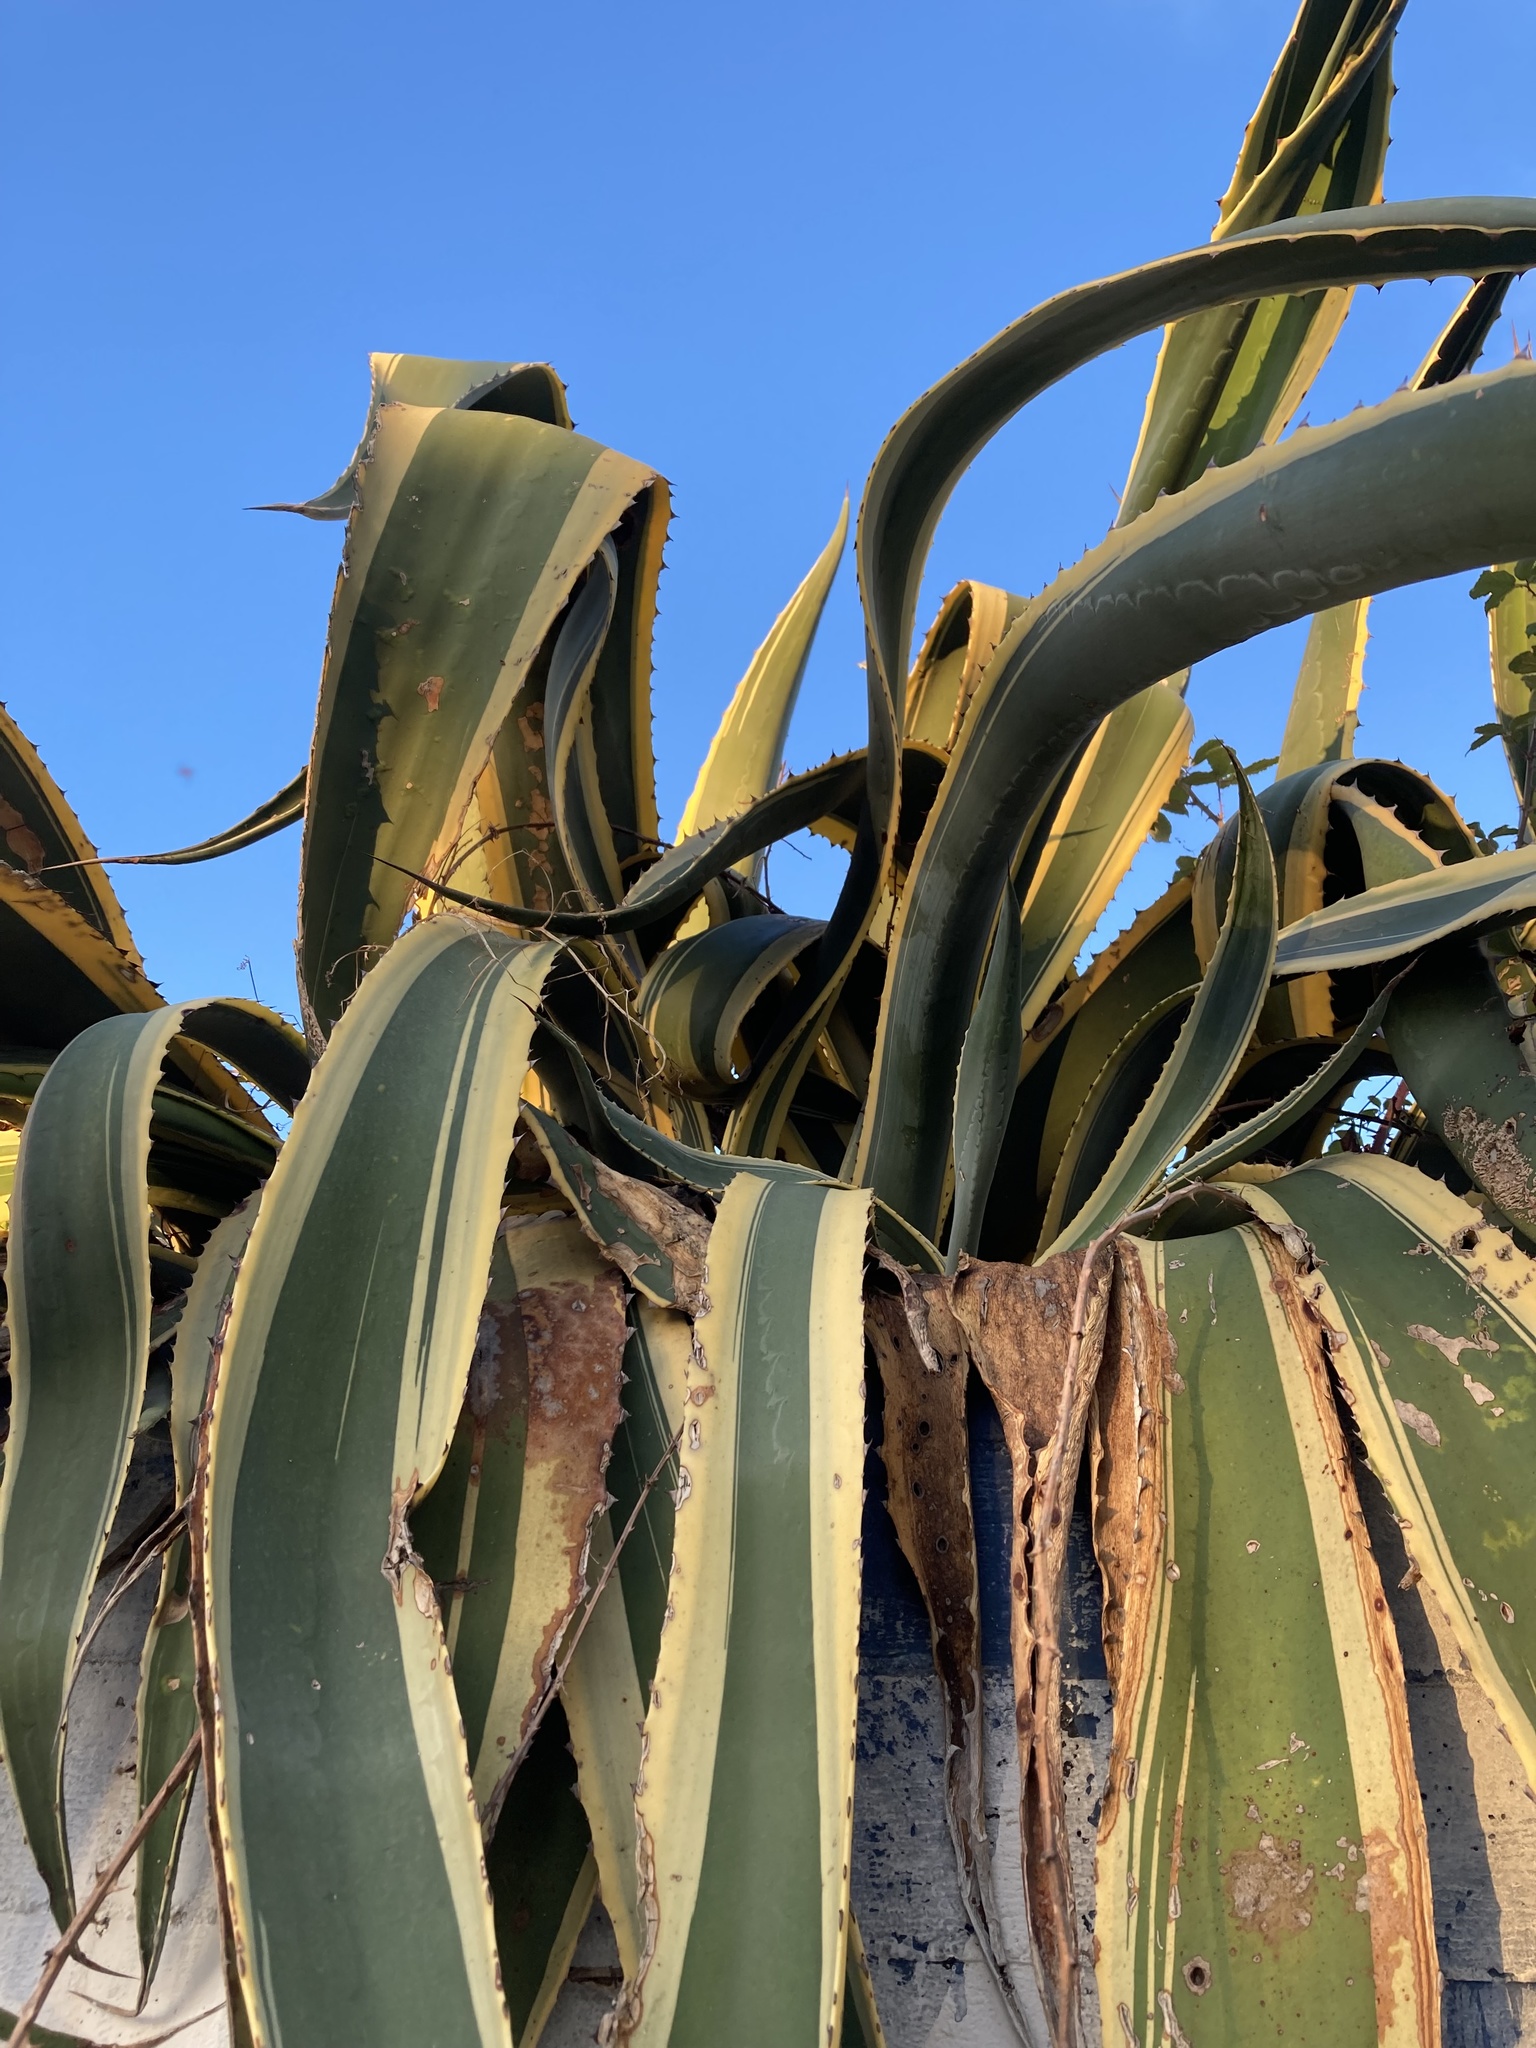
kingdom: Plantae
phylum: Tracheophyta
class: Liliopsida
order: Asparagales
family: Asparagaceae
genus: Agave
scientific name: Agave americana
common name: Centuryplant
